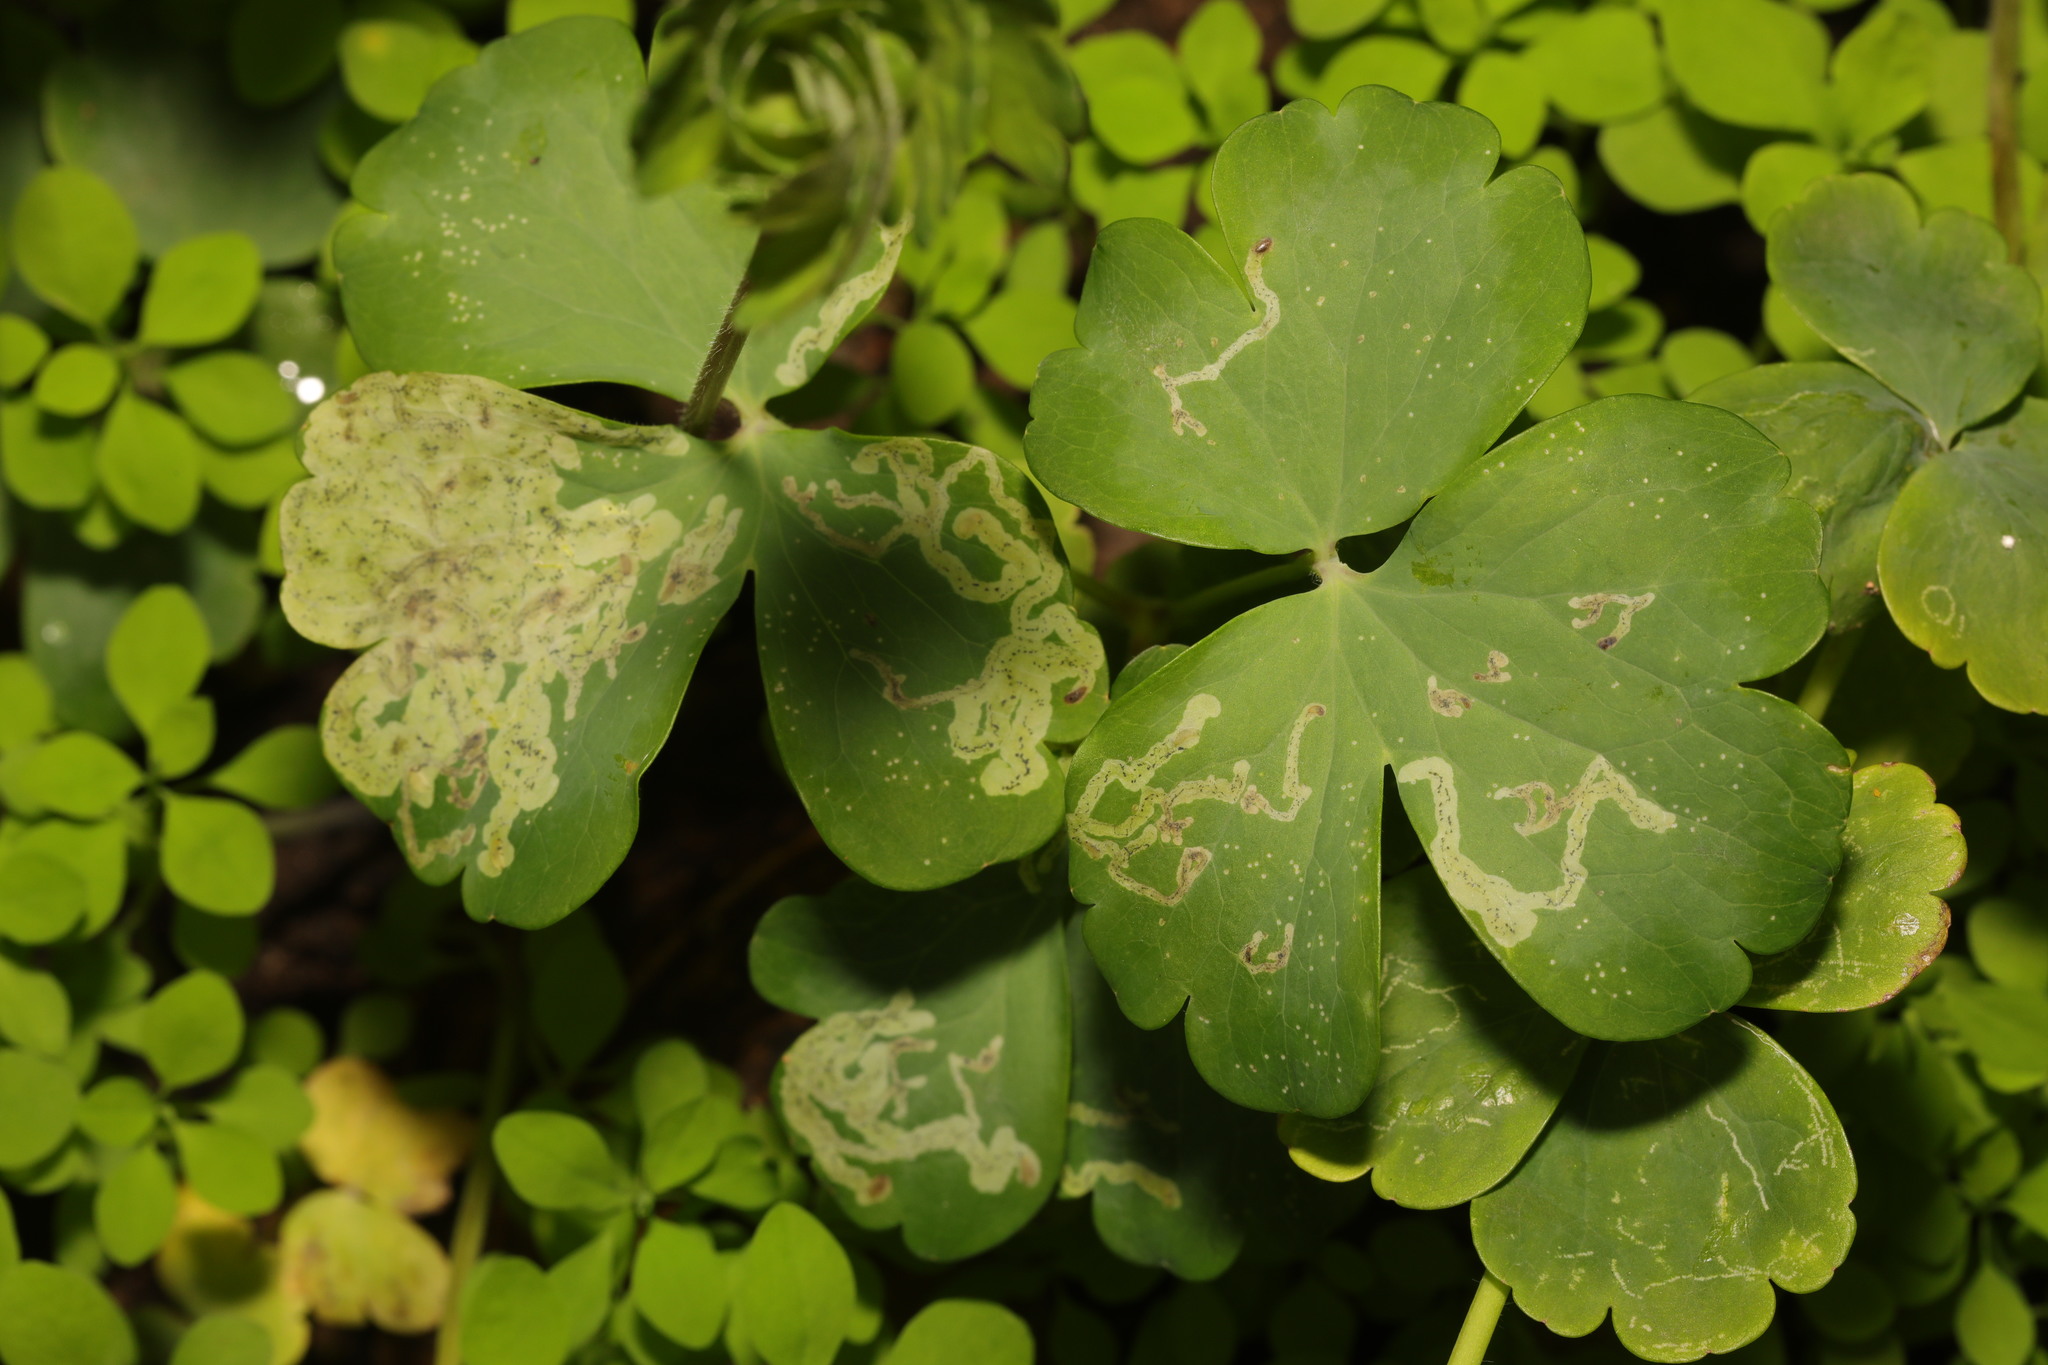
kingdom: Animalia
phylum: Arthropoda
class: Insecta
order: Diptera
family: Agromyzidae
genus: Phytomyza
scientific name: Phytomyza ancholiae
